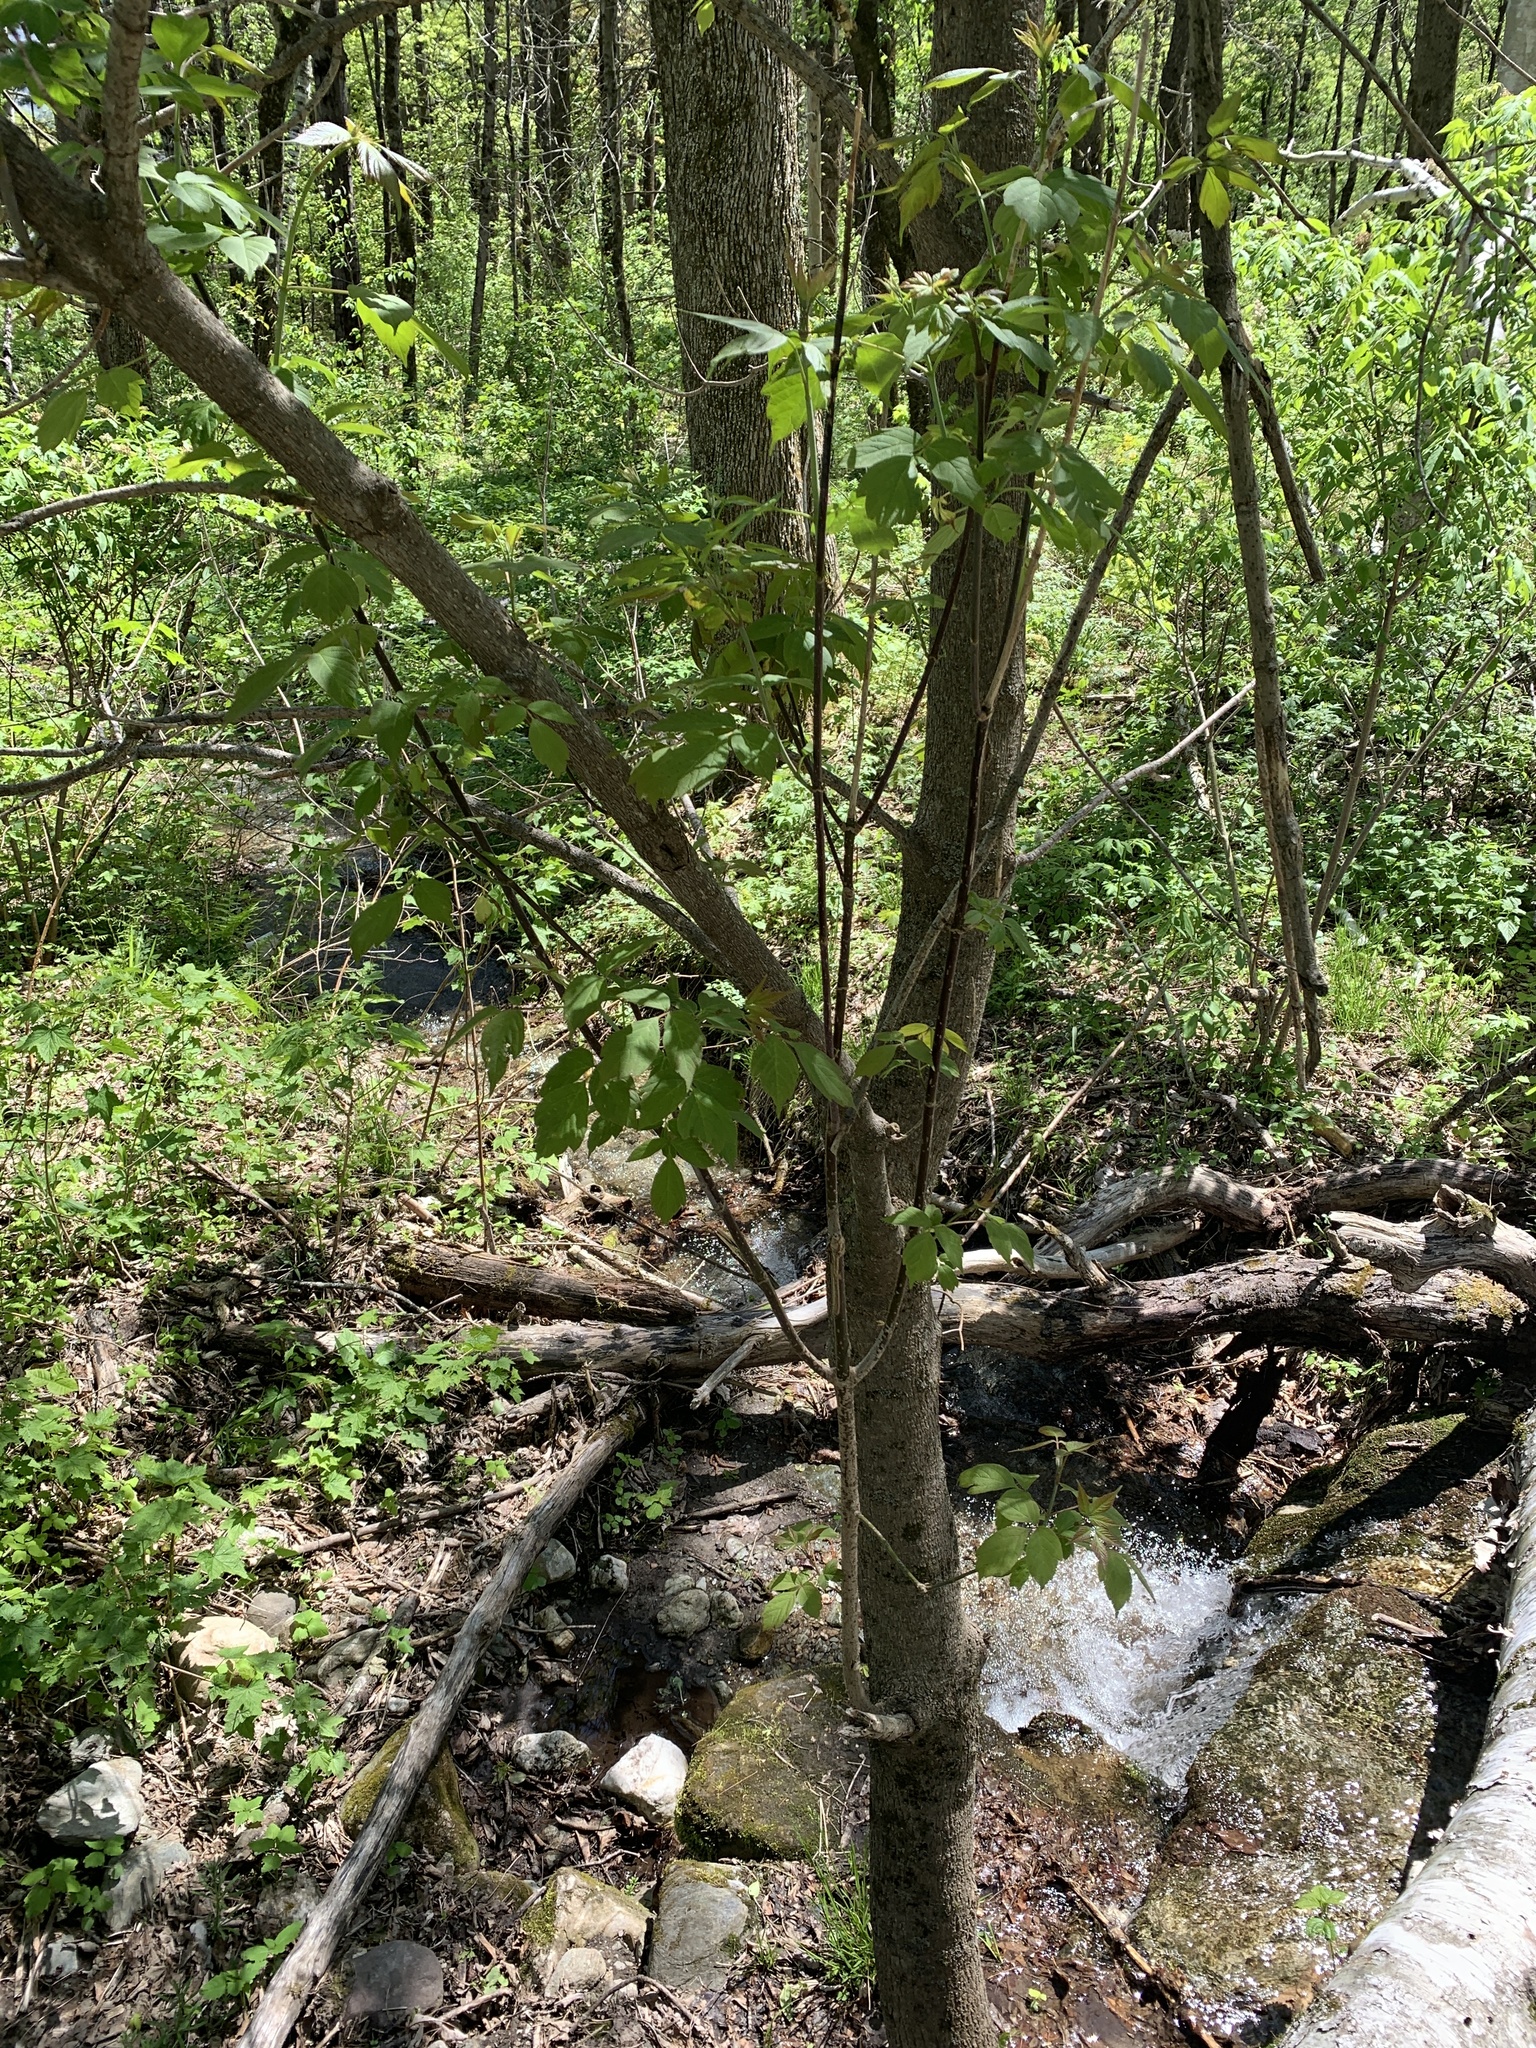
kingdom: Plantae
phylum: Tracheophyta
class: Magnoliopsida
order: Sapindales
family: Sapindaceae
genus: Acer
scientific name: Acer negundo
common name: Ashleaf maple
